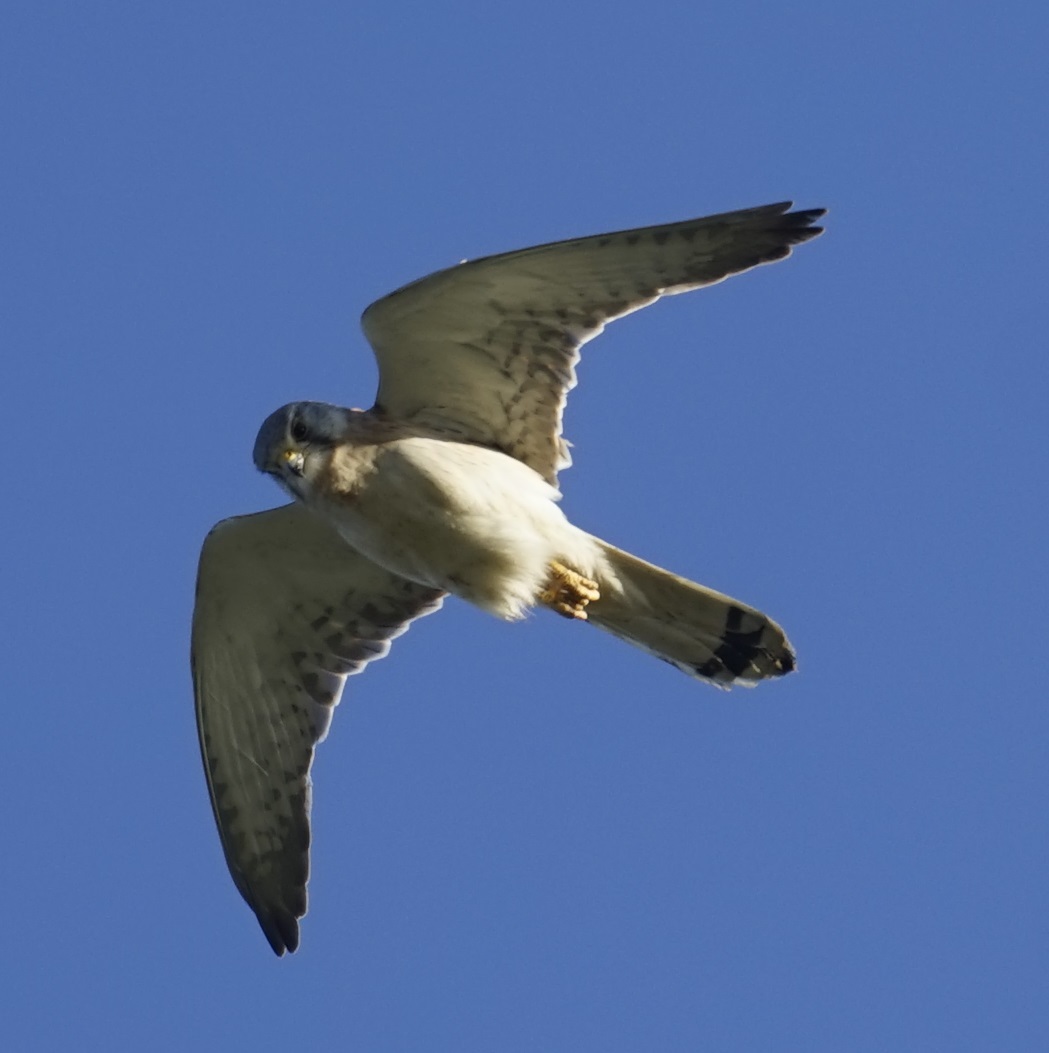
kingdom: Animalia
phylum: Chordata
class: Aves
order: Falconiformes
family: Falconidae
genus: Falco
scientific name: Falco cenchroides
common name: Nankeen kestrel
